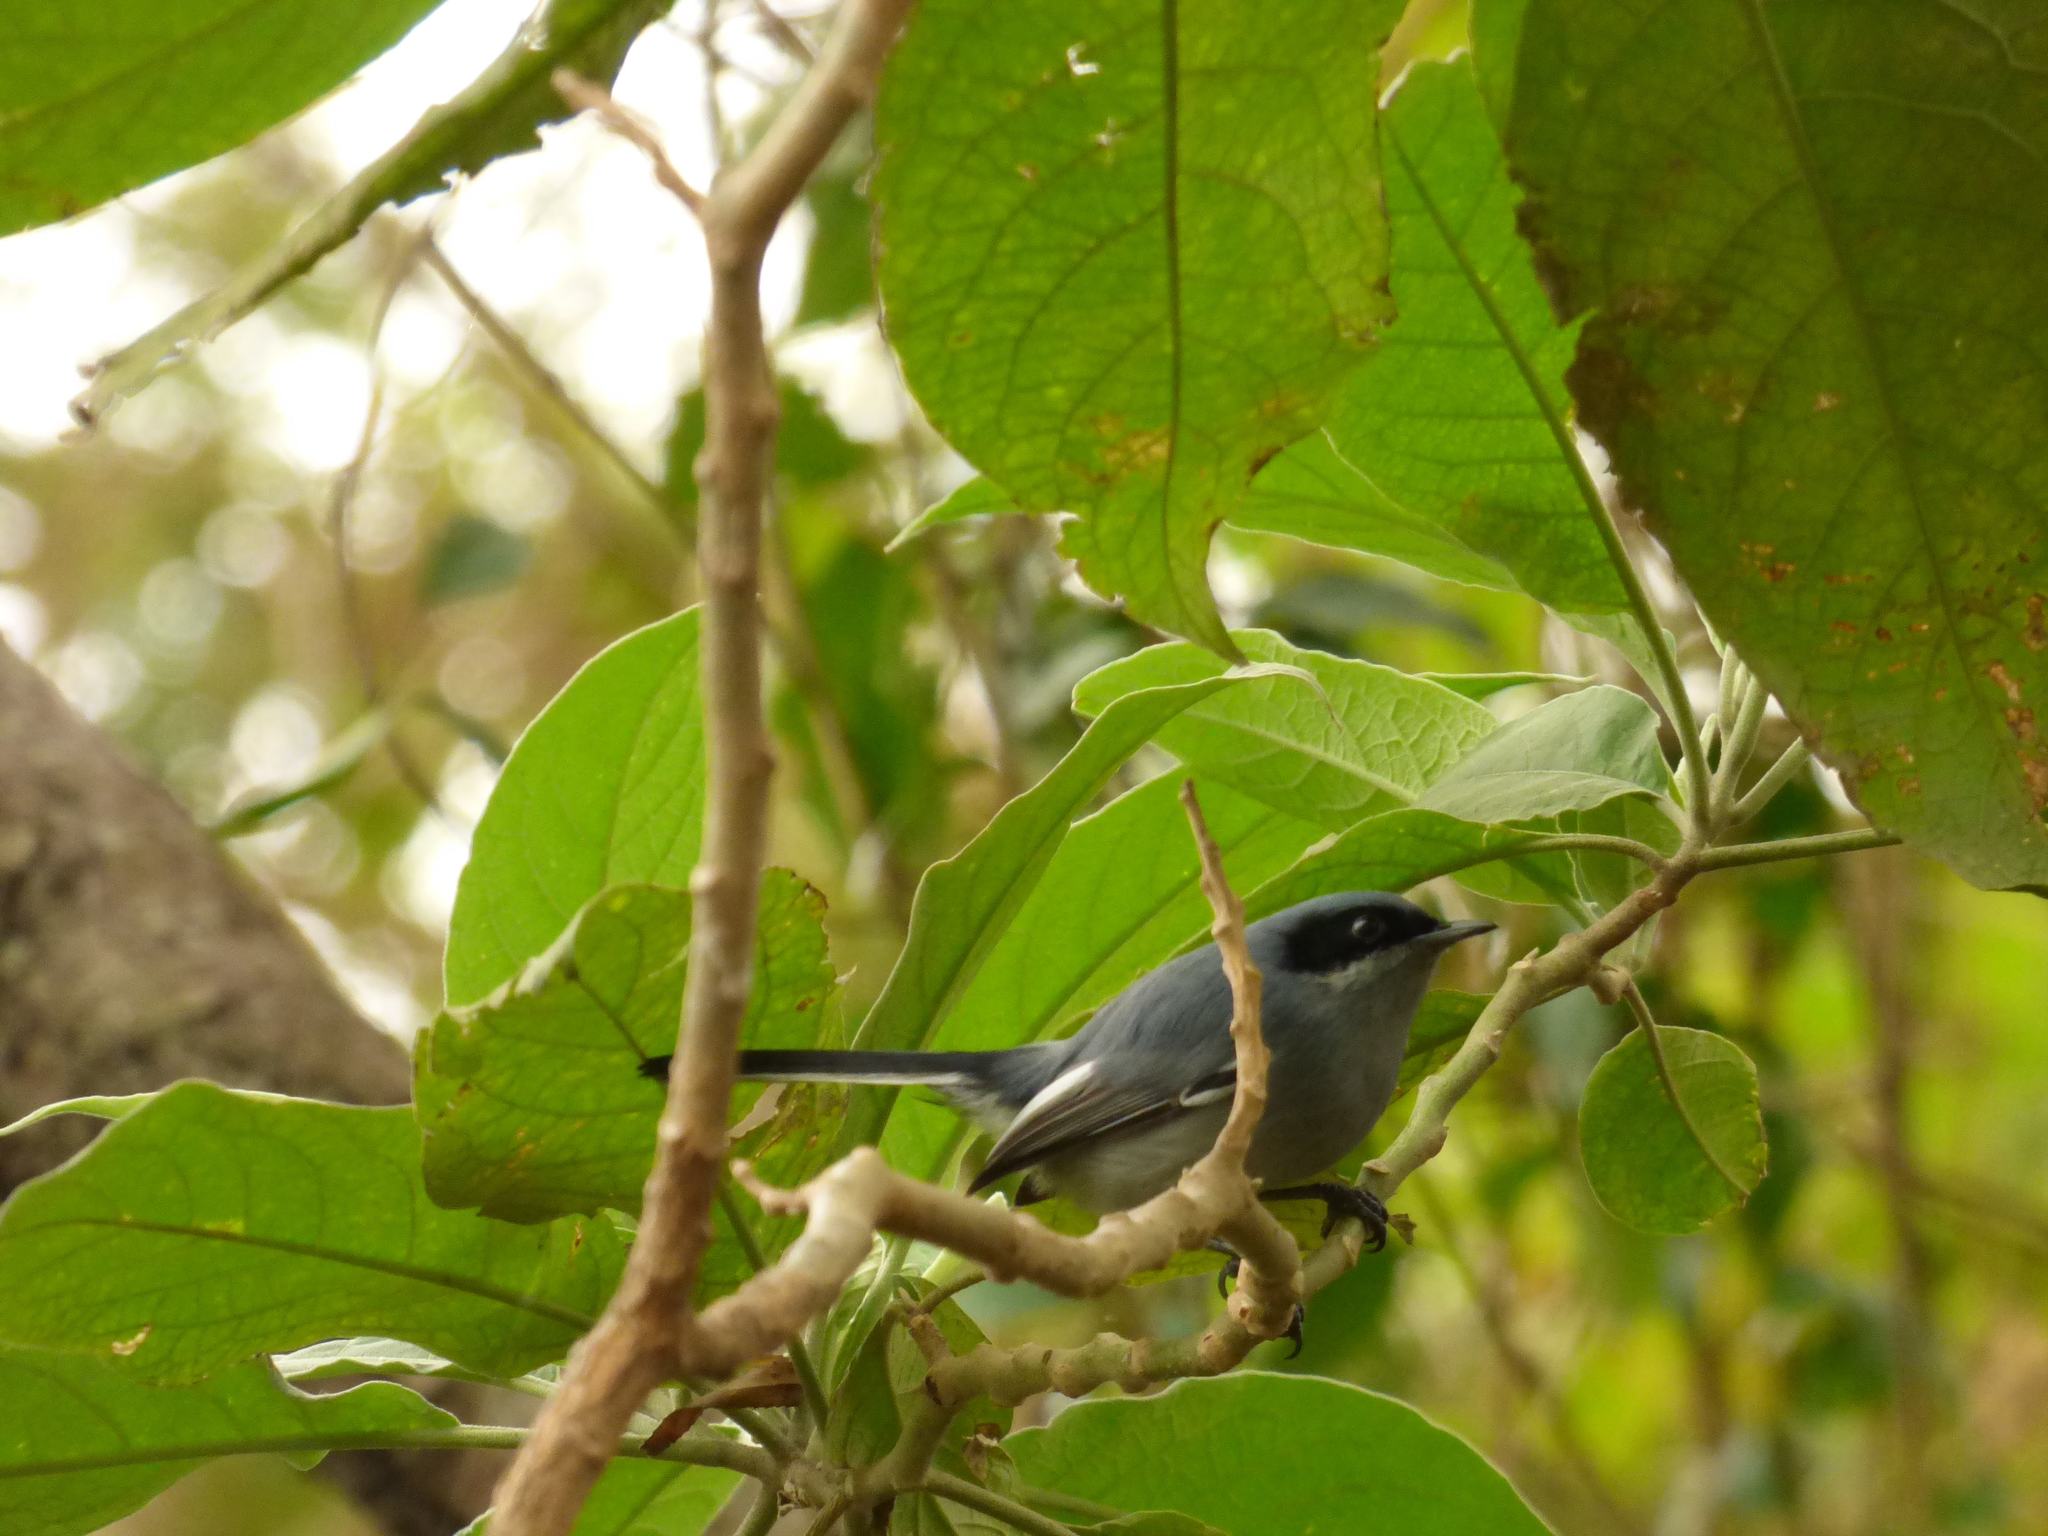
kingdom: Animalia
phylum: Chordata
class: Aves
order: Passeriformes
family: Polioptilidae
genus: Polioptila
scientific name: Polioptila dumicola
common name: Masked gnatcatcher
